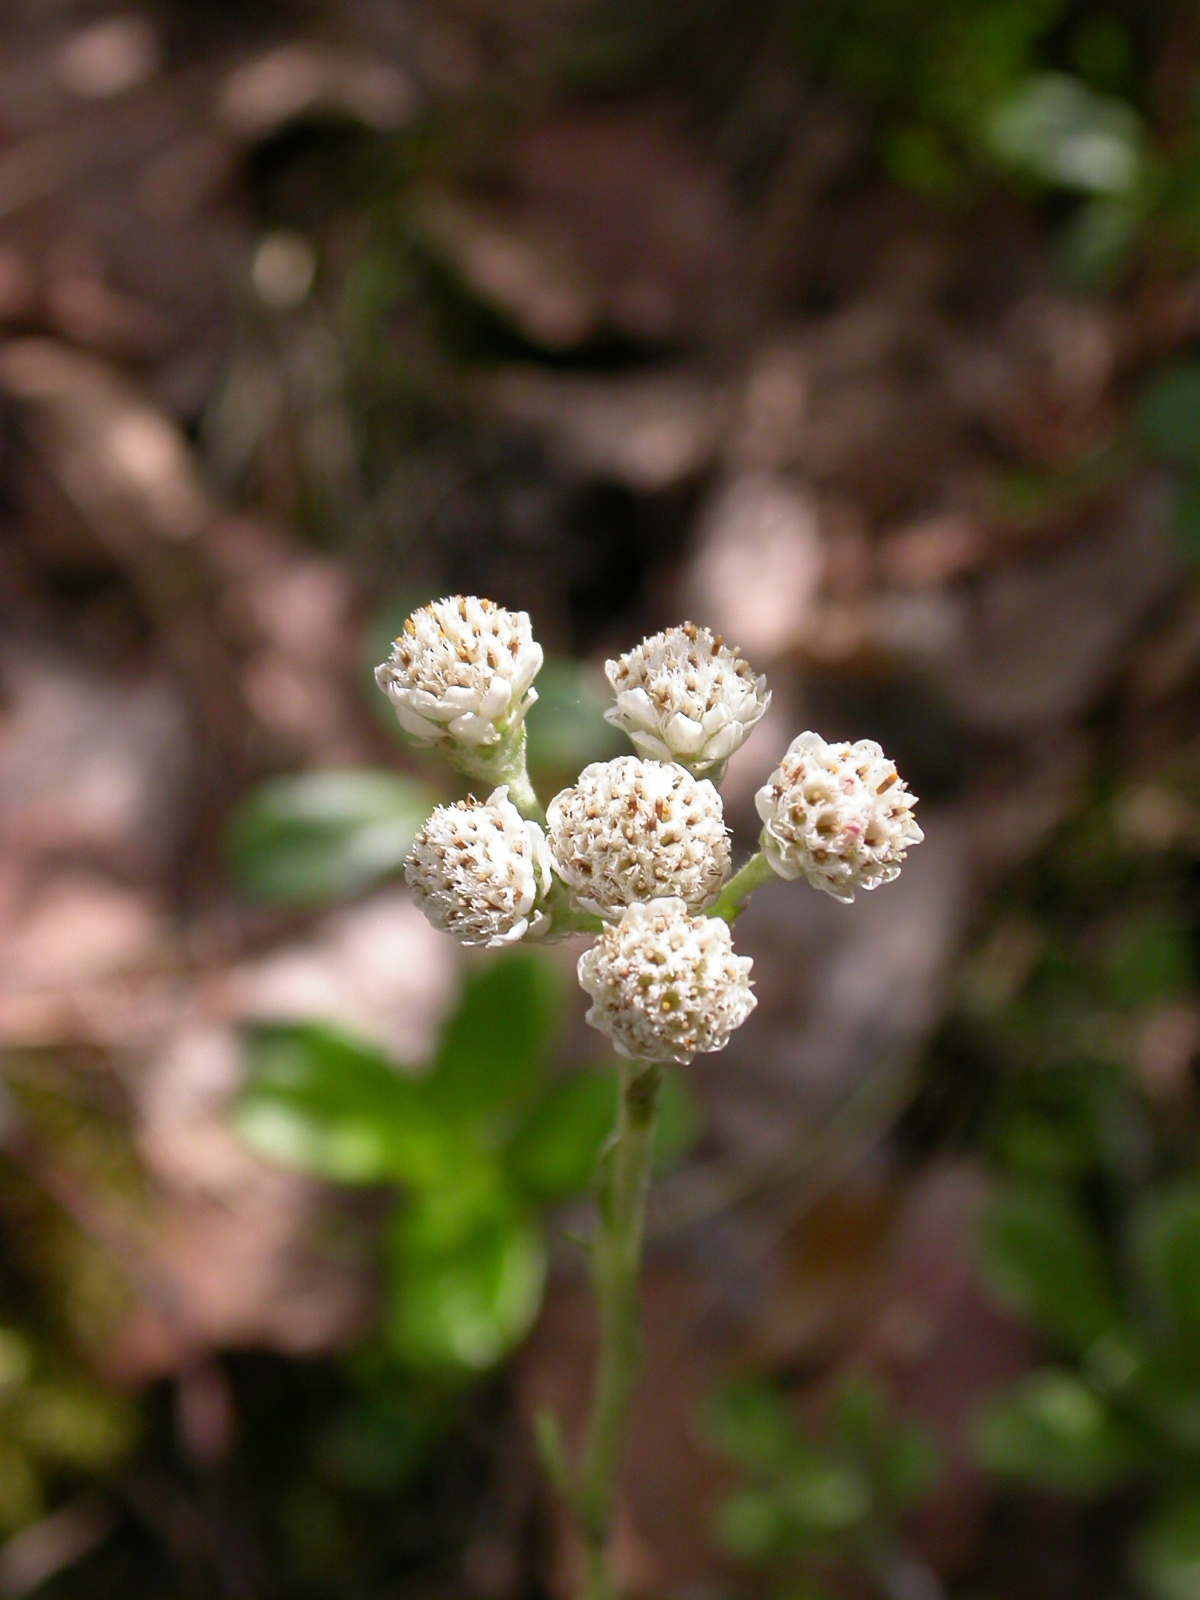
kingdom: Plantae
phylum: Tracheophyta
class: Magnoliopsida
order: Asterales
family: Asteraceae
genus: Antennaria
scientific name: Antennaria dioica
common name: Mountain everlasting
